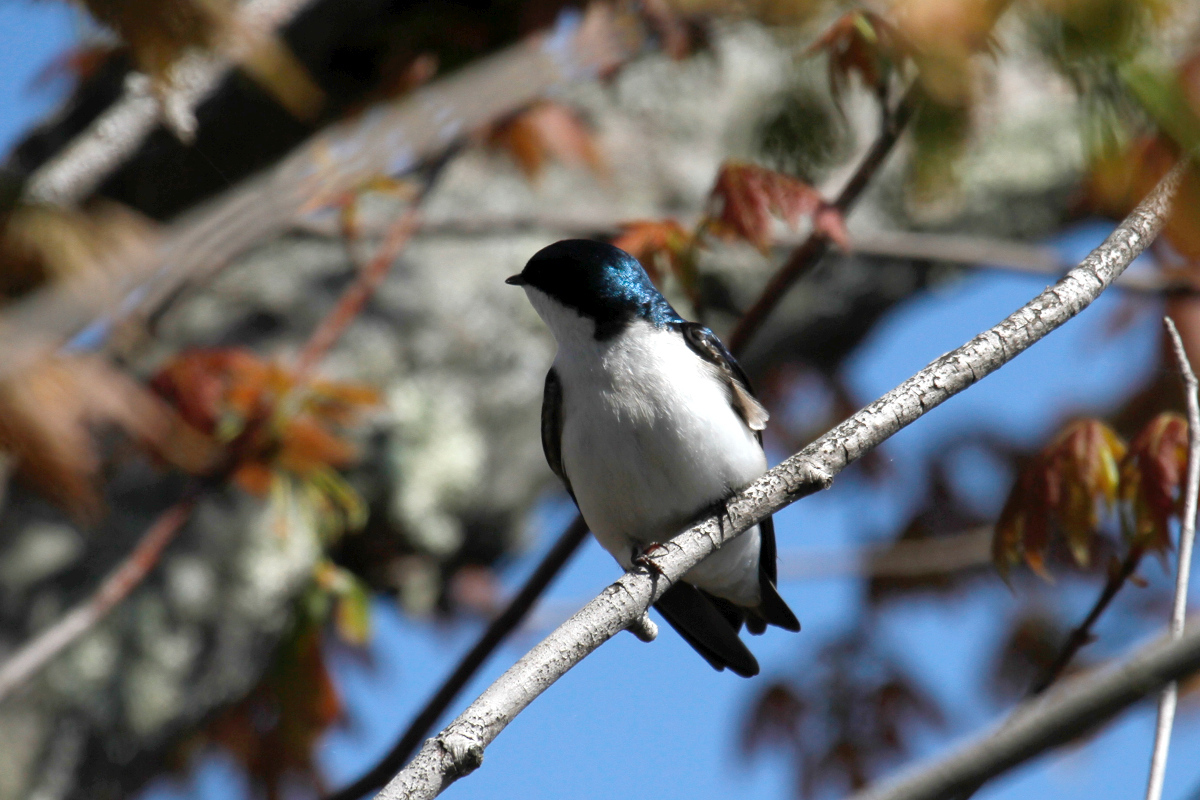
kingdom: Animalia
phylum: Chordata
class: Aves
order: Passeriformes
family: Hirundinidae
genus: Tachycineta
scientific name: Tachycineta bicolor
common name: Tree swallow
